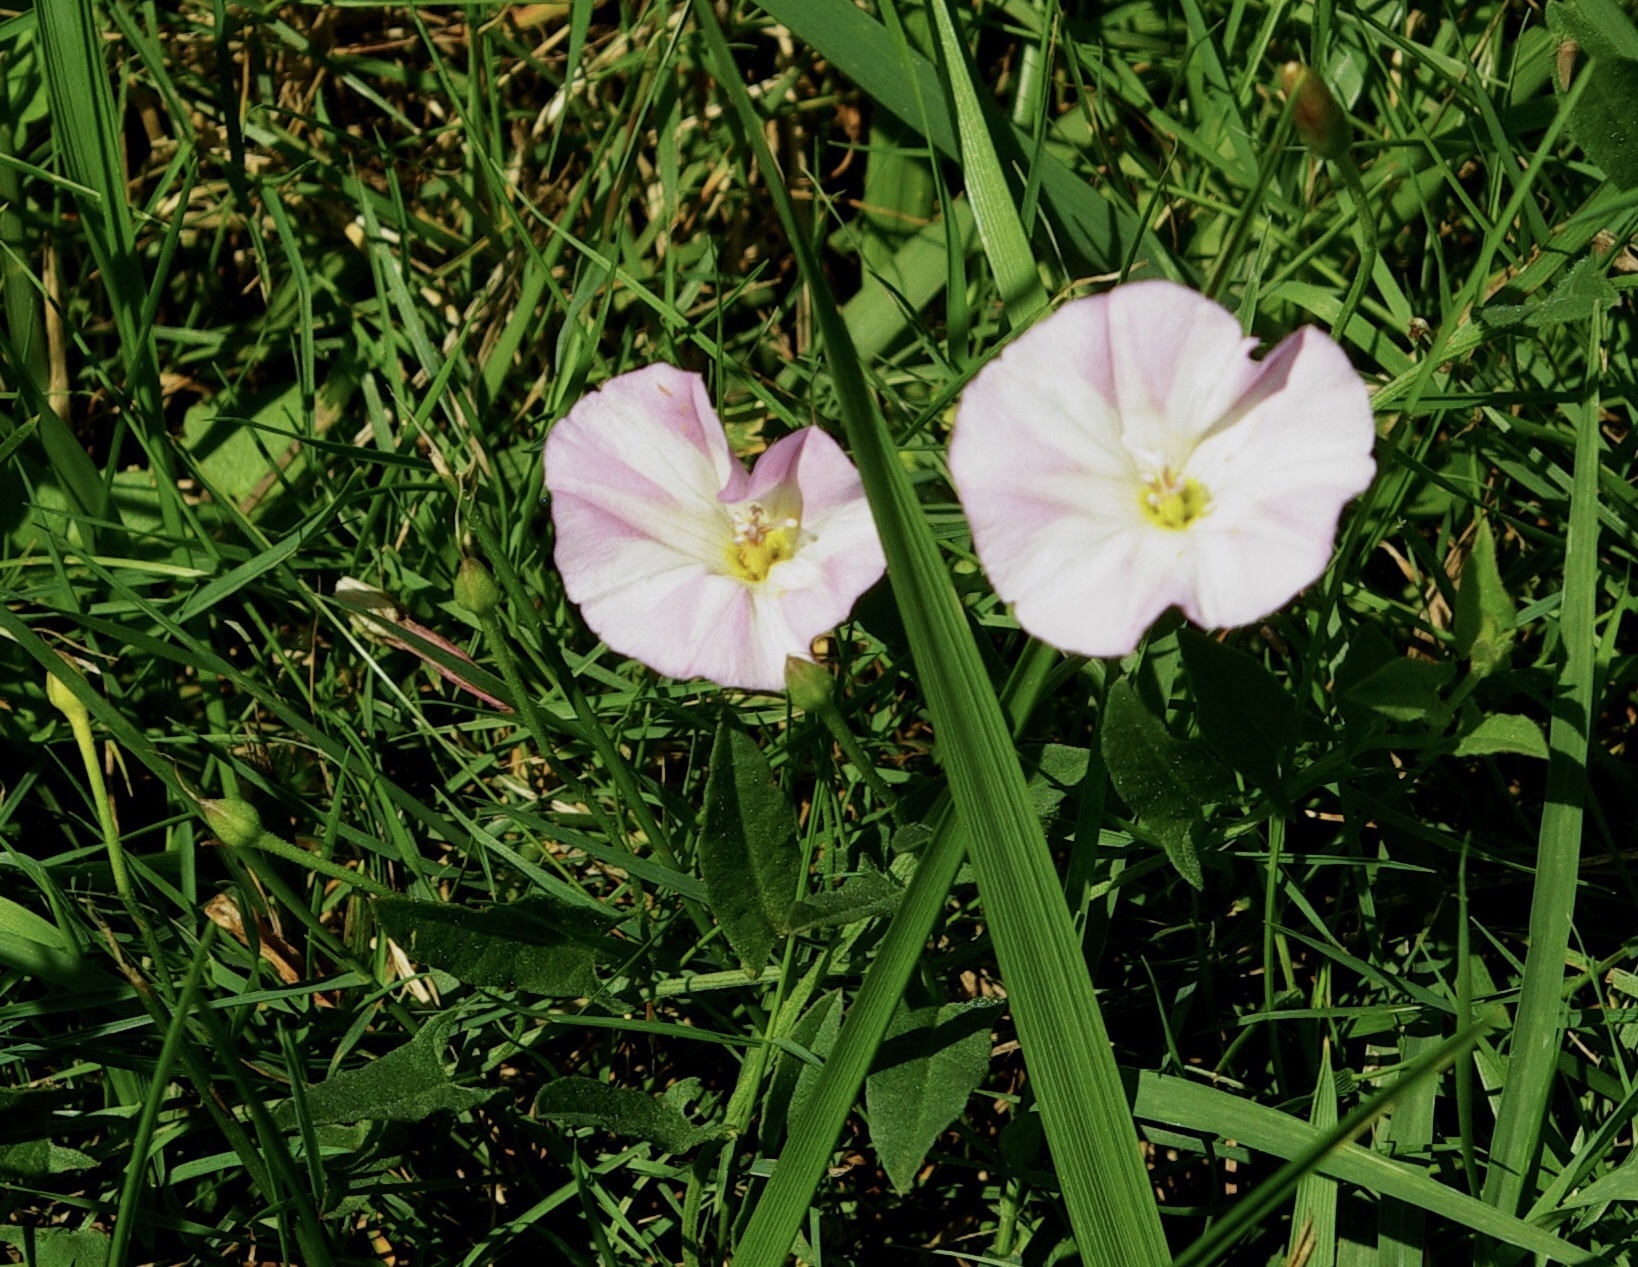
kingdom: Plantae
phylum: Tracheophyta
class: Magnoliopsida
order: Solanales
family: Convolvulaceae
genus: Convolvulus
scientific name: Convolvulus arvensis
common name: Field bindweed
